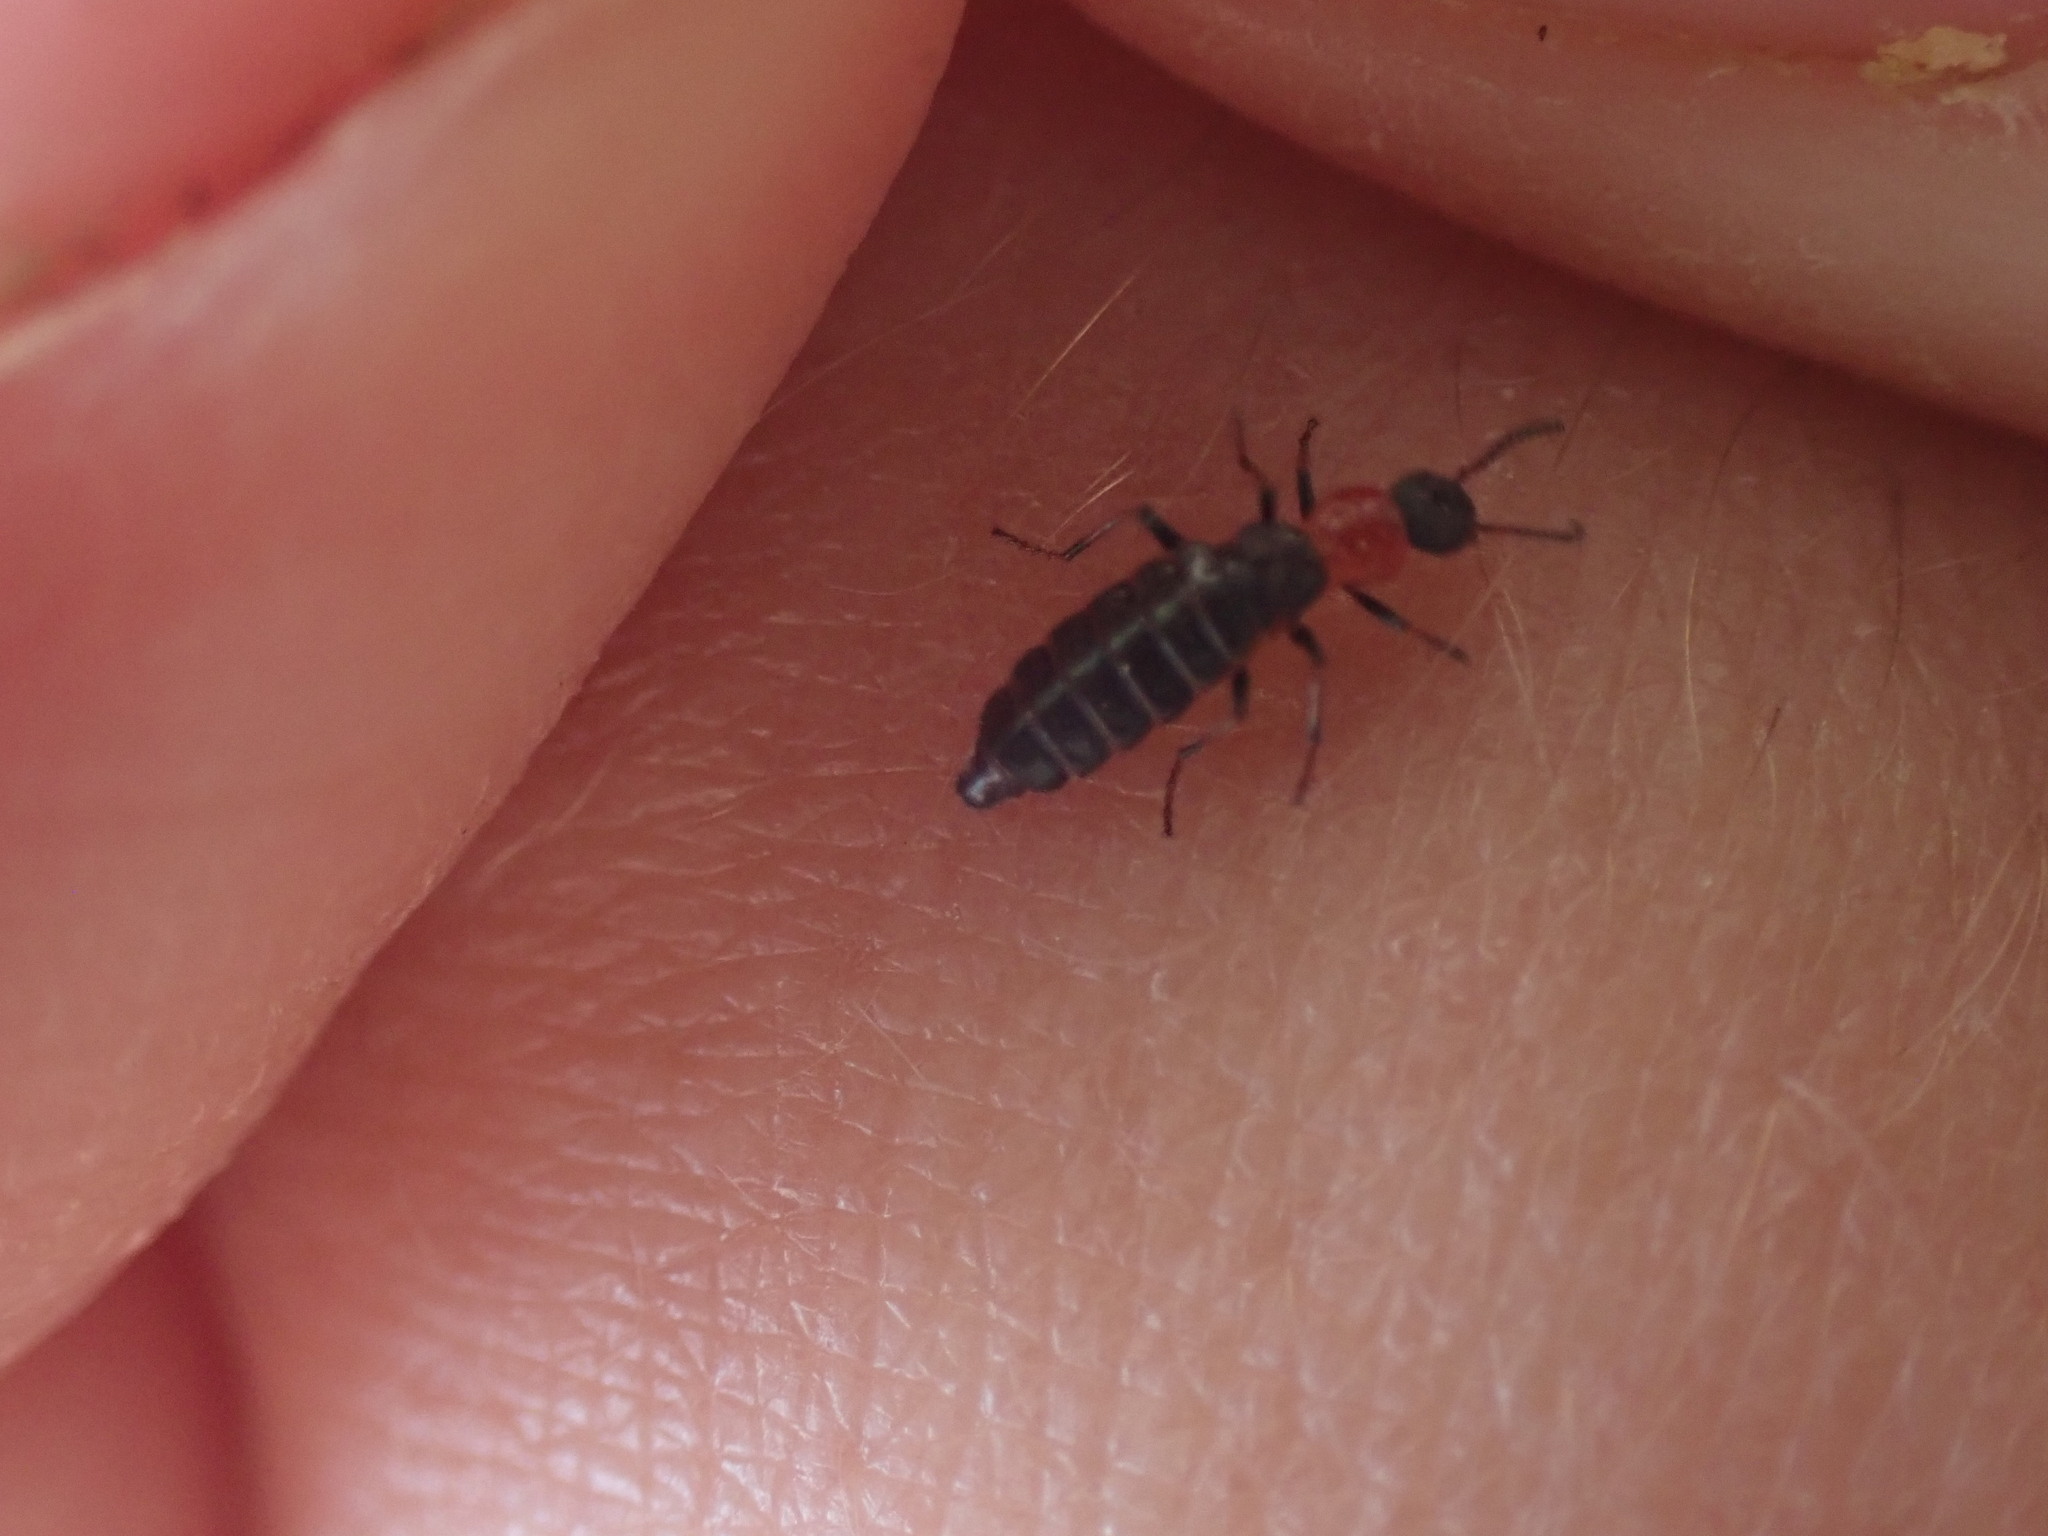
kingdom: Animalia
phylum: Arthropoda
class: Insecta
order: Coleoptera
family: Melyridae
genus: Endeodes
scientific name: Endeodes collaris
